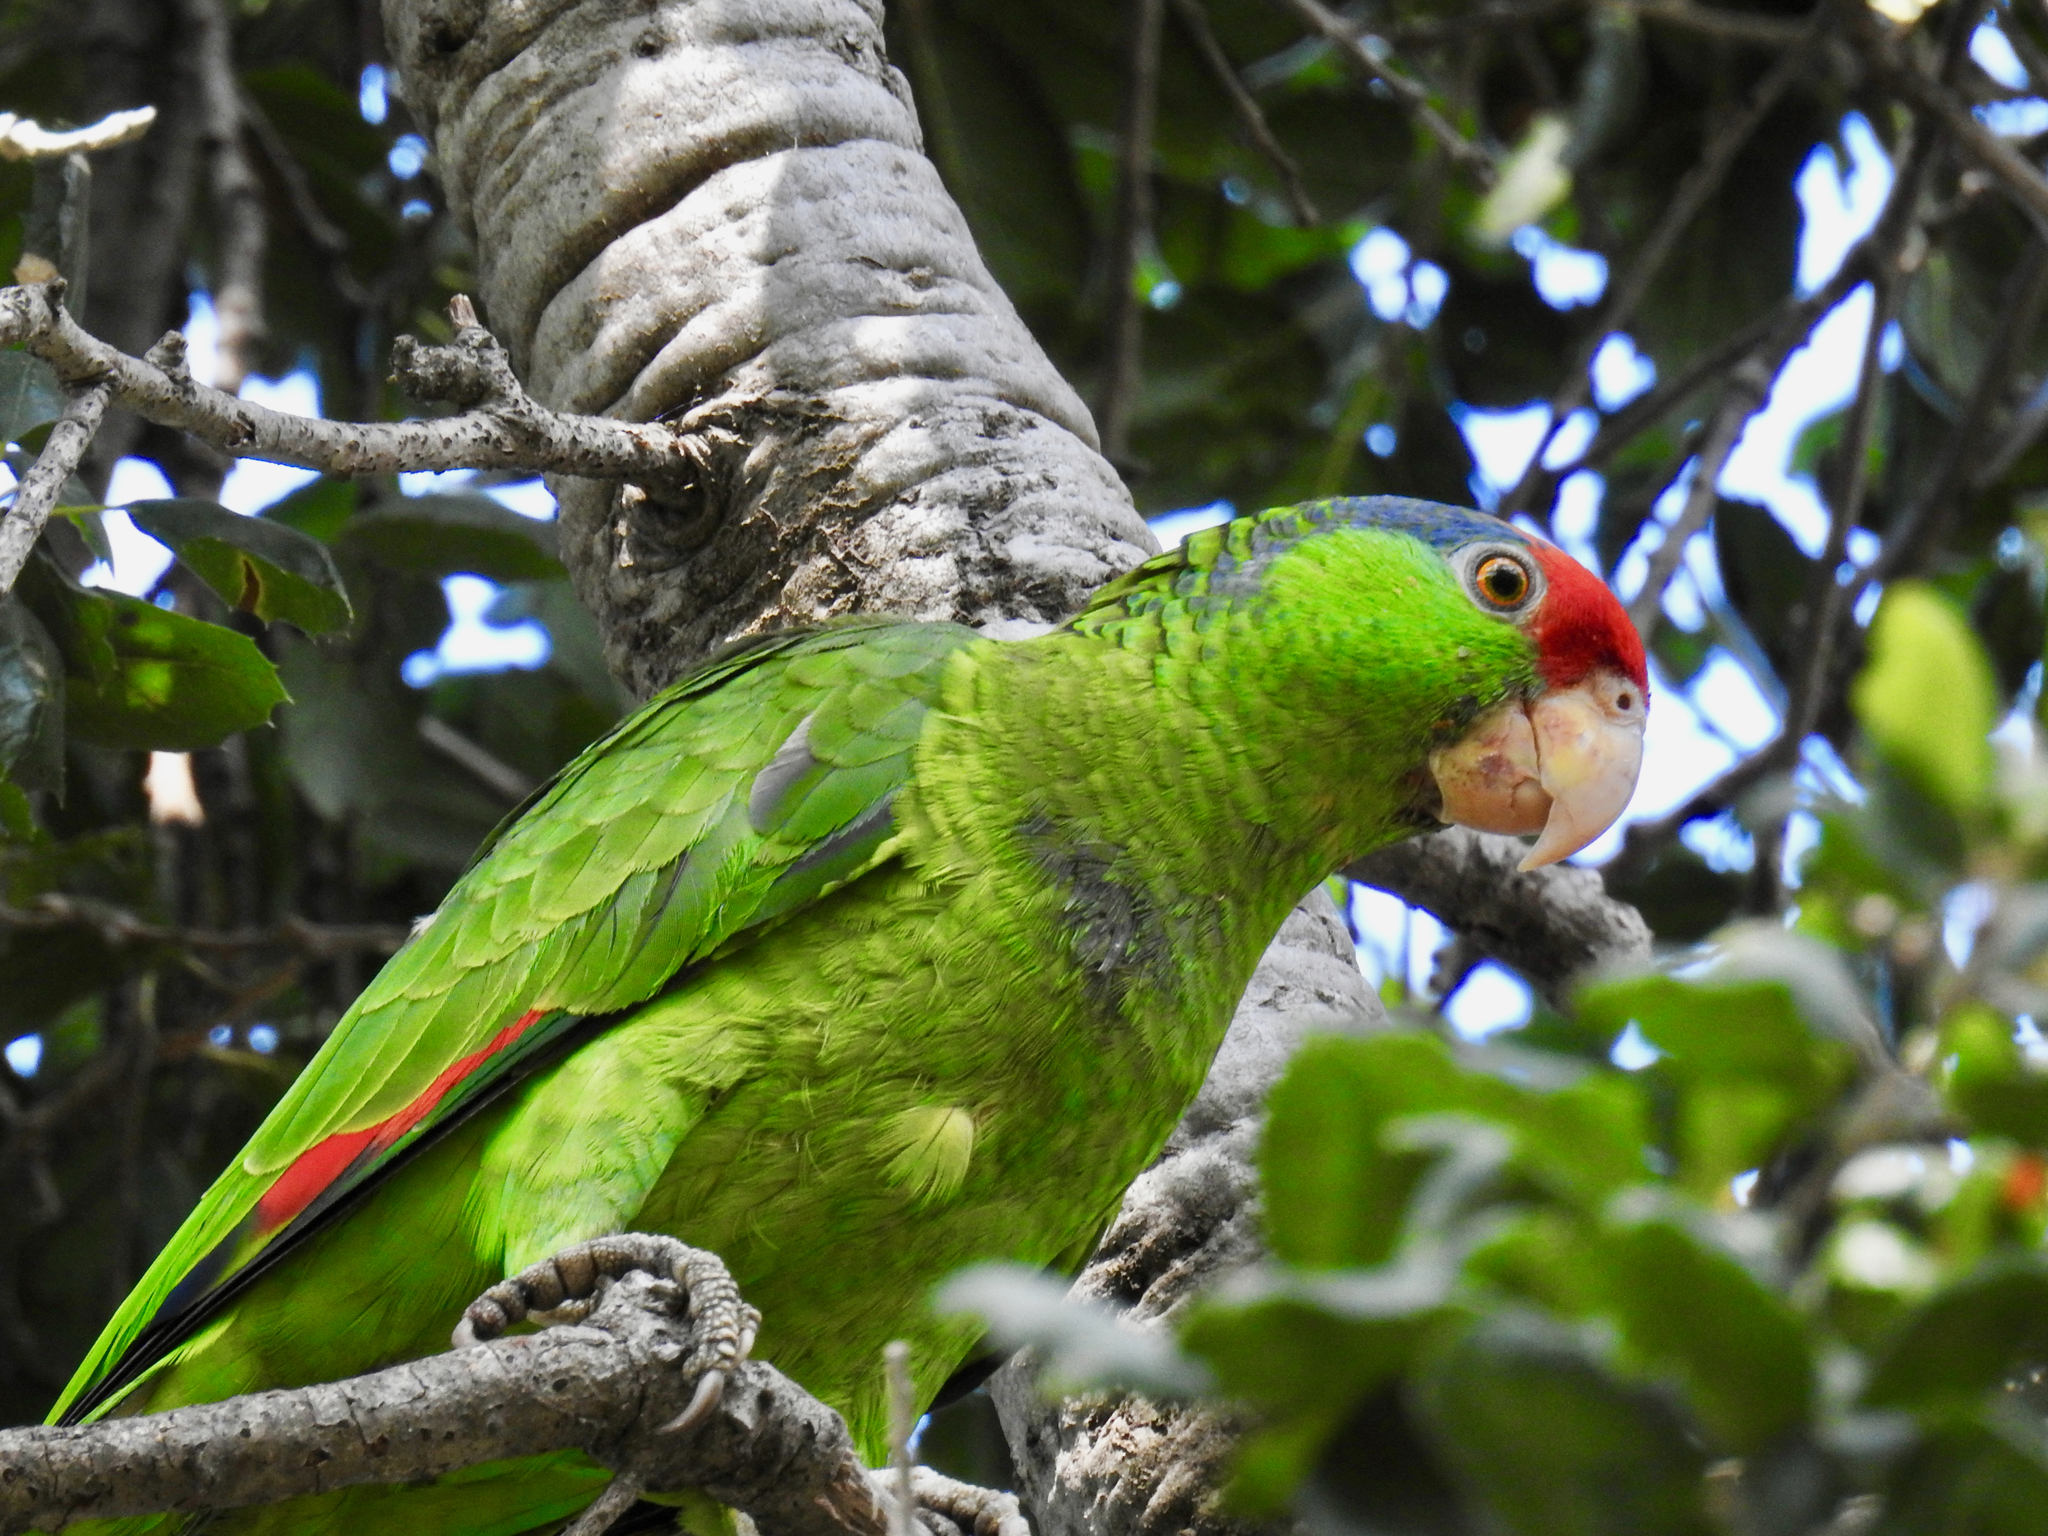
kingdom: Animalia
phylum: Chordata
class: Aves
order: Psittaciformes
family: Psittacidae
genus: Amazona
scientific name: Amazona viridigenalis
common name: Red-crowned amazon
